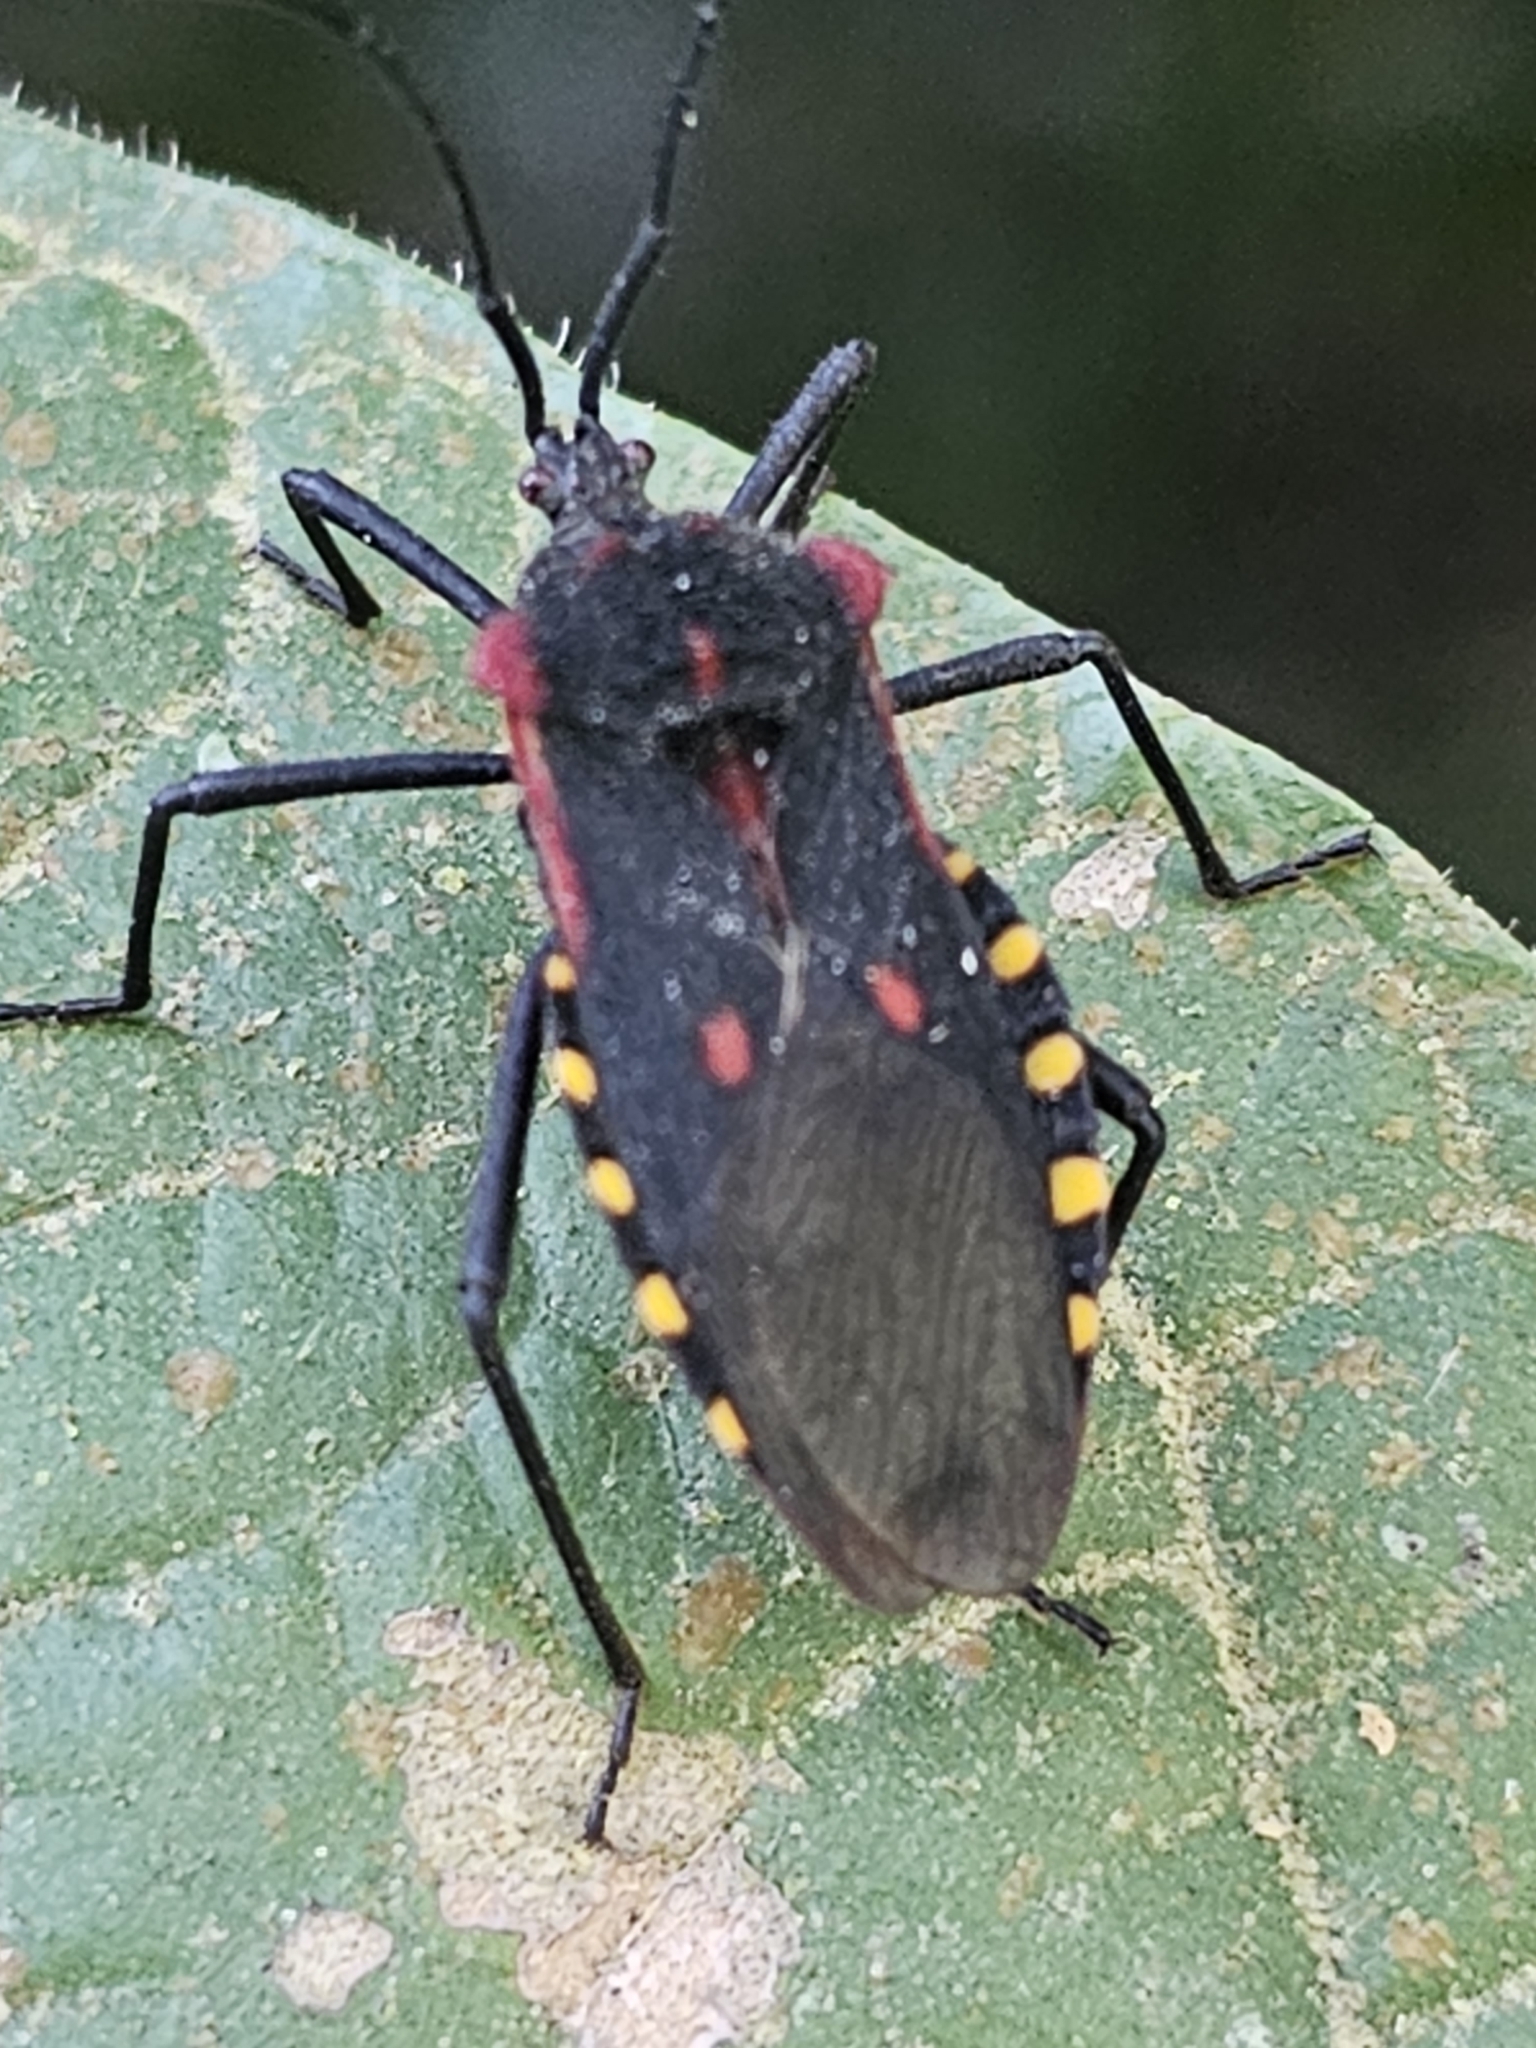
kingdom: Animalia
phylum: Arthropoda
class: Insecta
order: Hemiptera
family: Coreidae
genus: Sephina
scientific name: Sephina pustulata
